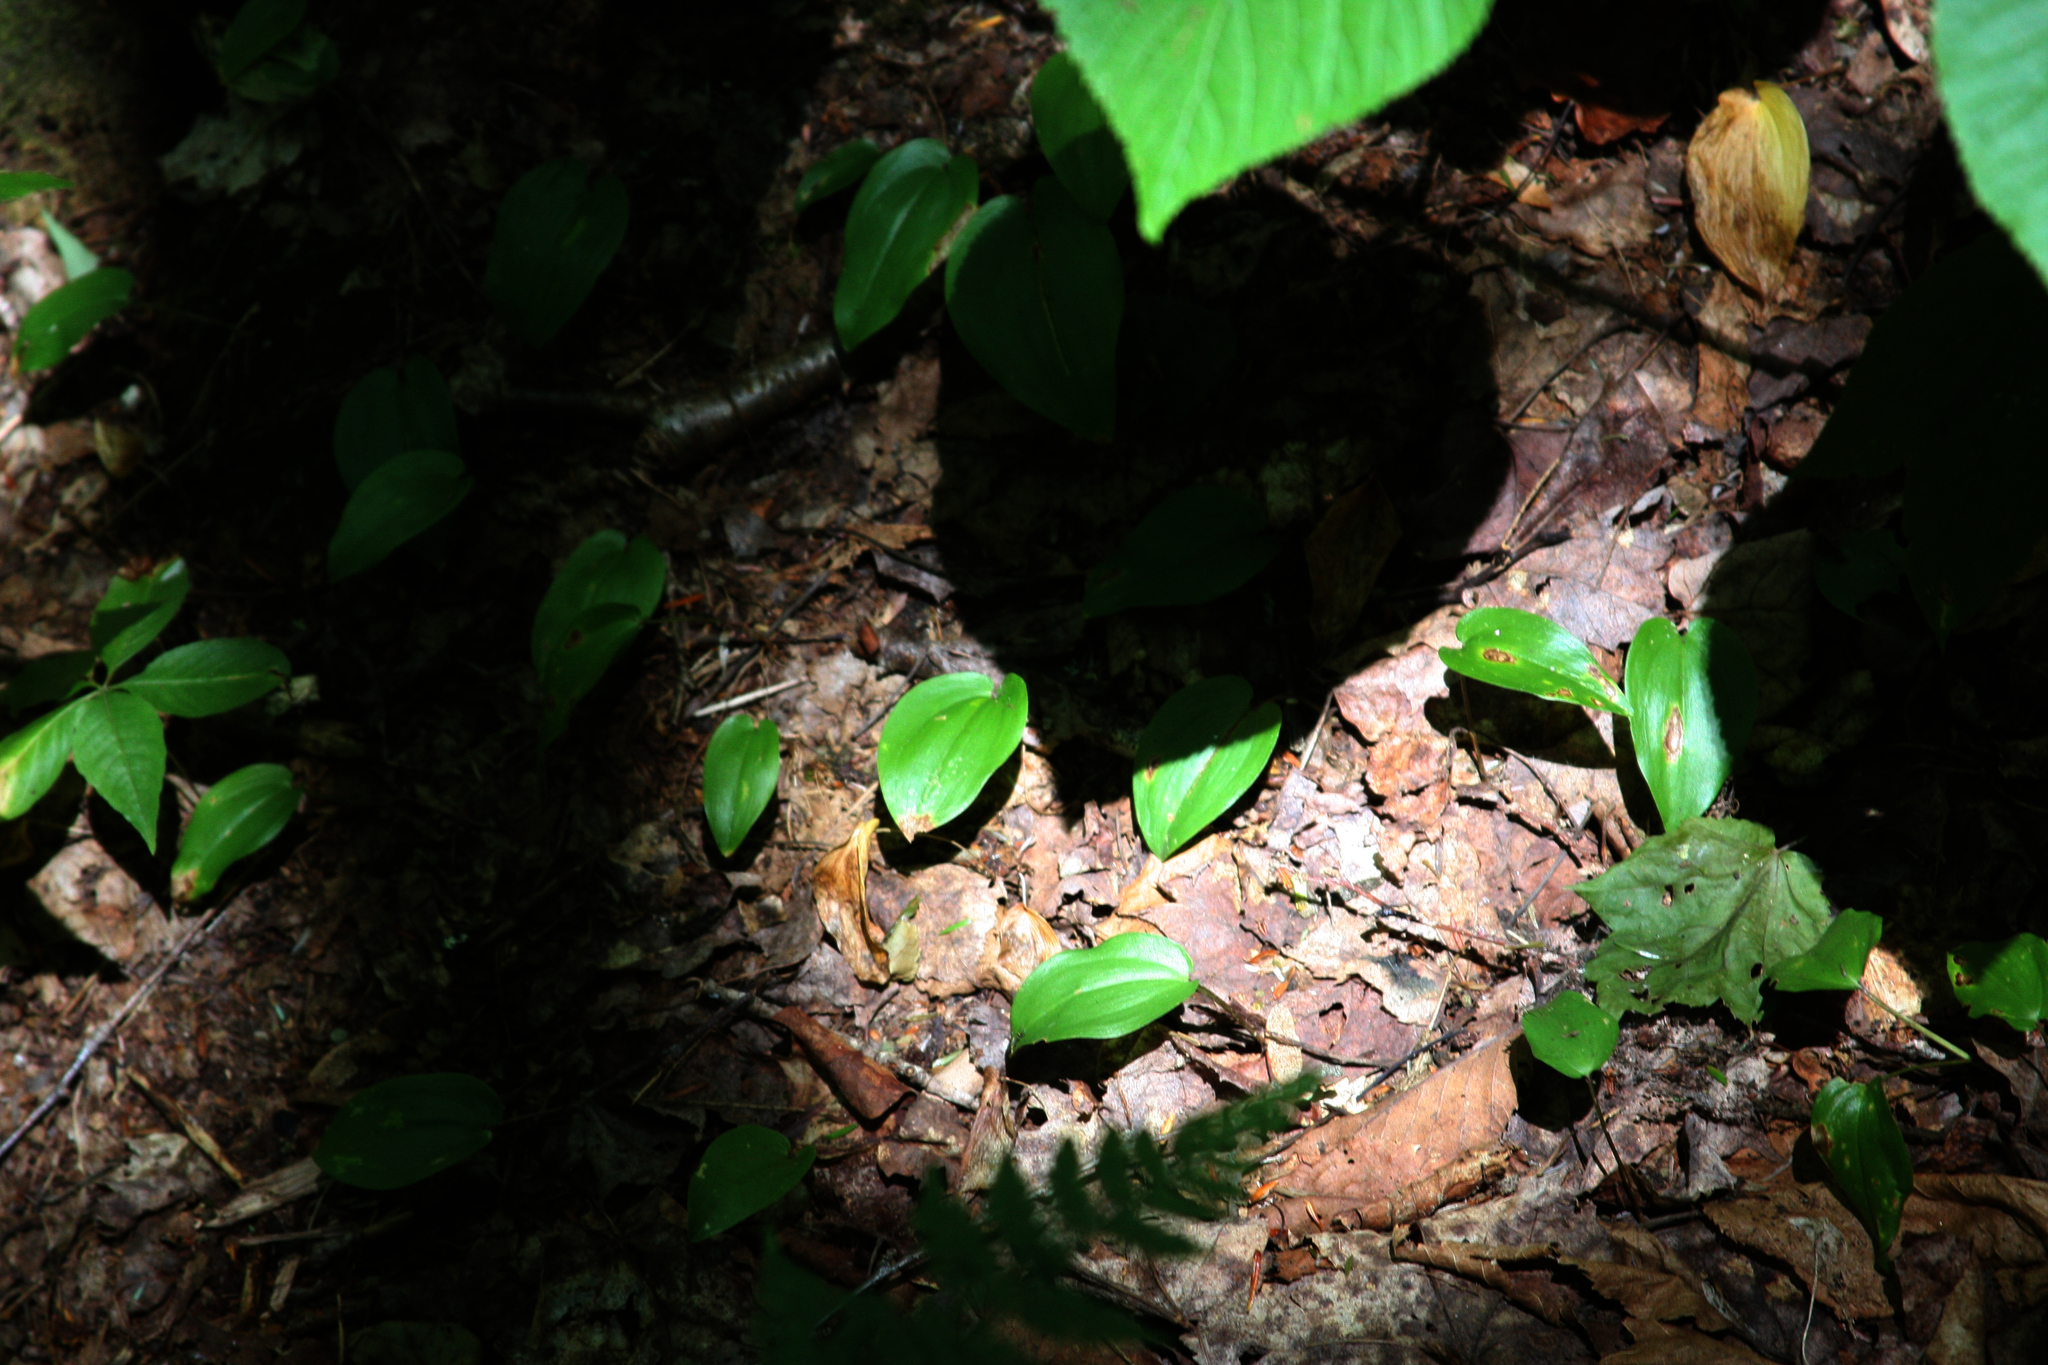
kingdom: Plantae
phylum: Tracheophyta
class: Liliopsida
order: Asparagales
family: Asparagaceae
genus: Maianthemum
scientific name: Maianthemum canadense
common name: False lily-of-the-valley
